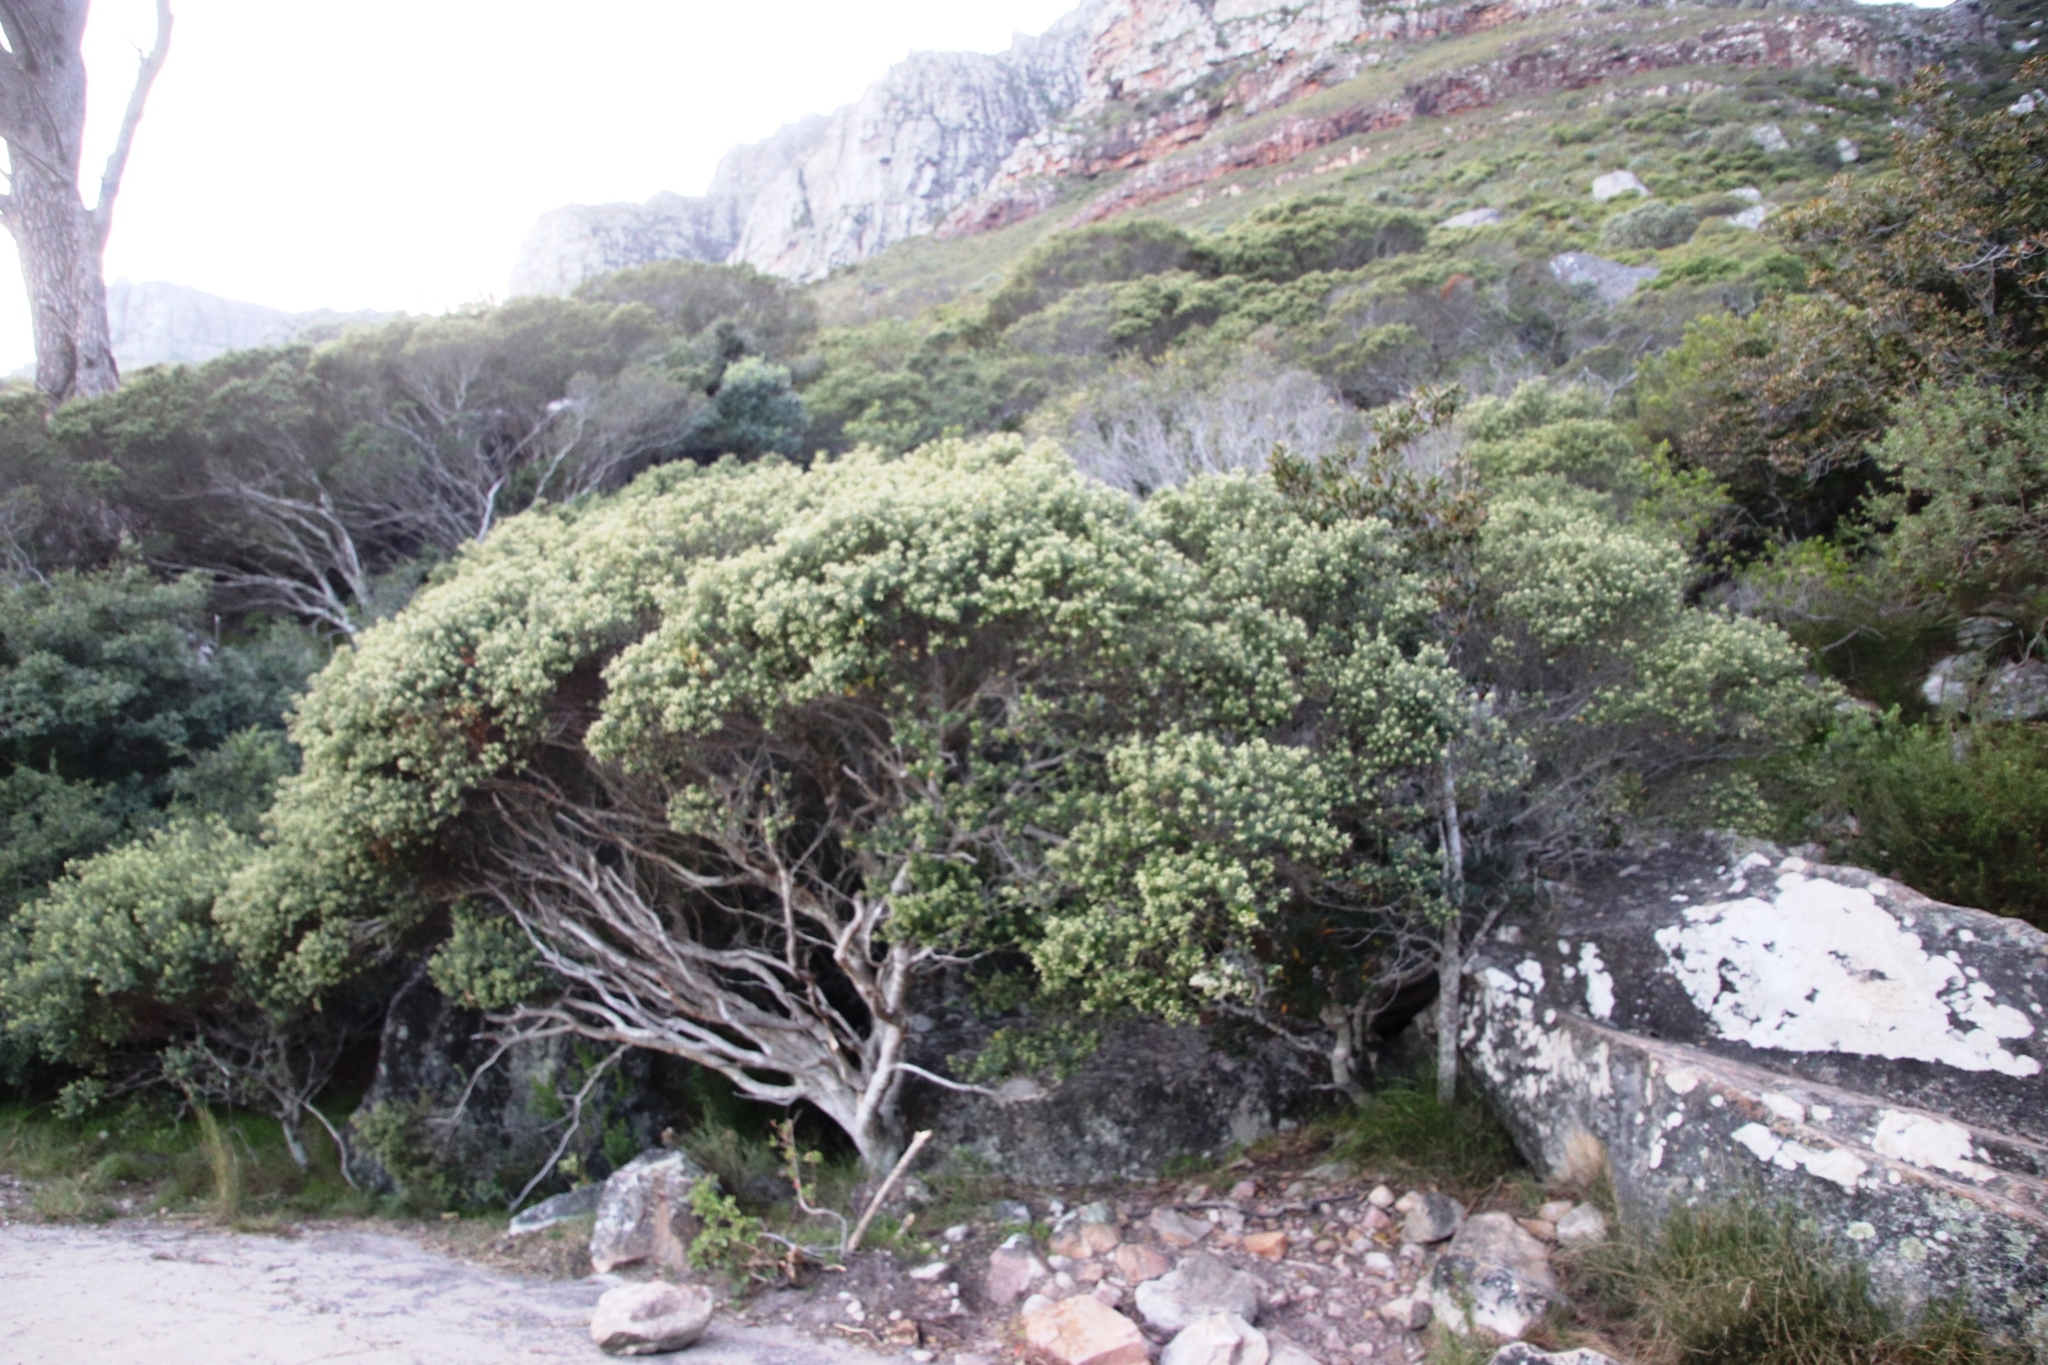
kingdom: Plantae
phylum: Tracheophyta
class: Magnoliopsida
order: Rosales
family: Rhamnaceae
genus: Phylica
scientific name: Phylica buxifolia
